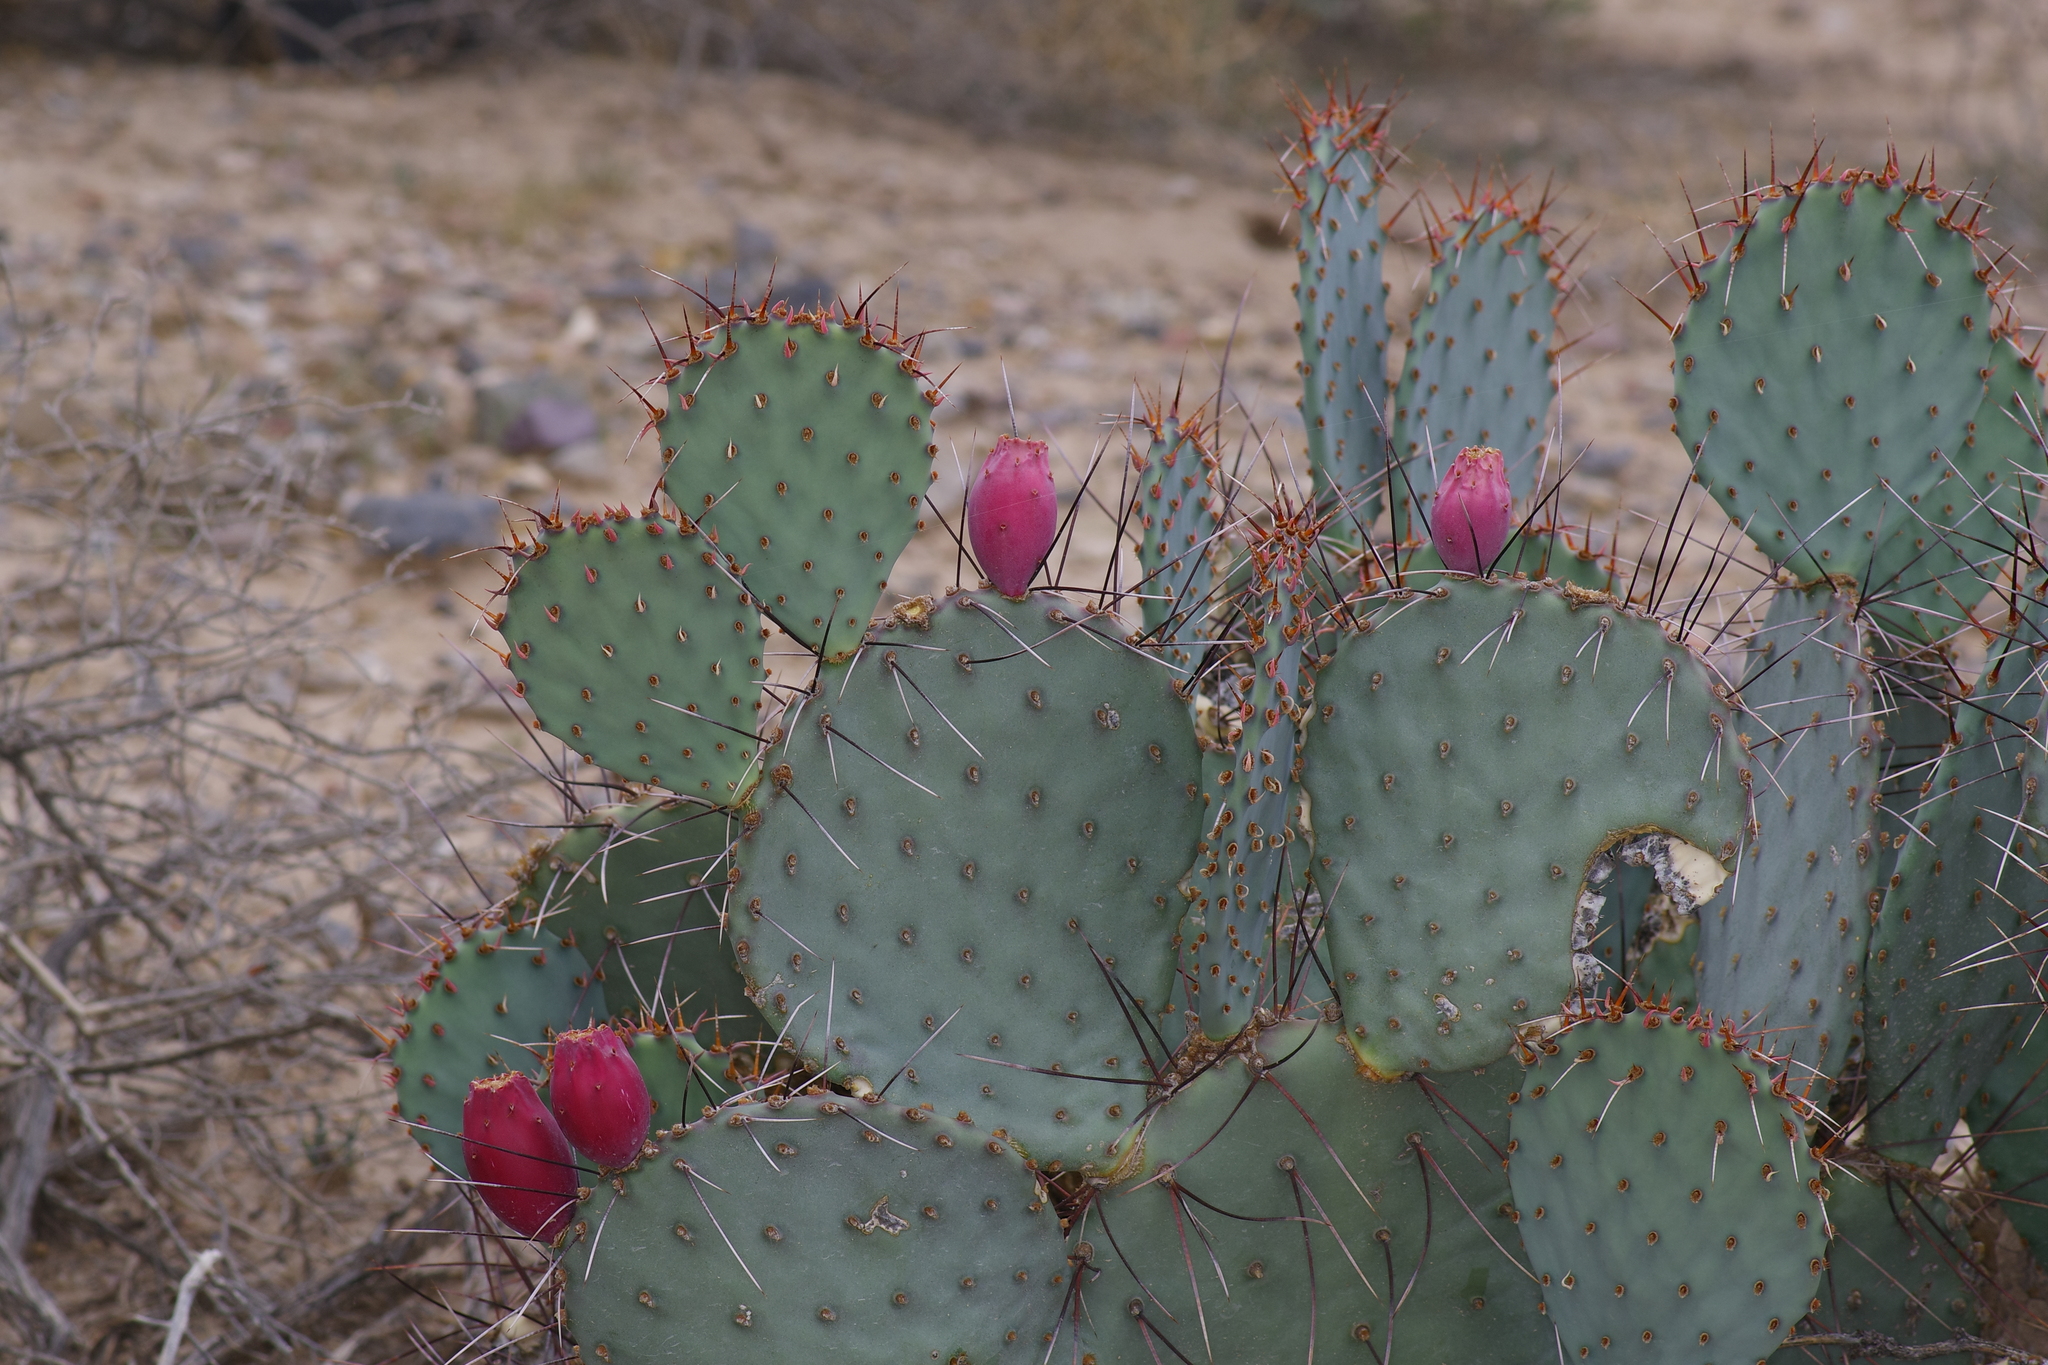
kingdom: Plantae
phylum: Tracheophyta
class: Magnoliopsida
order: Caryophyllales
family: Cactaceae
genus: Opuntia
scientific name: Opuntia macrocentra
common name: Purple prickly-pear
